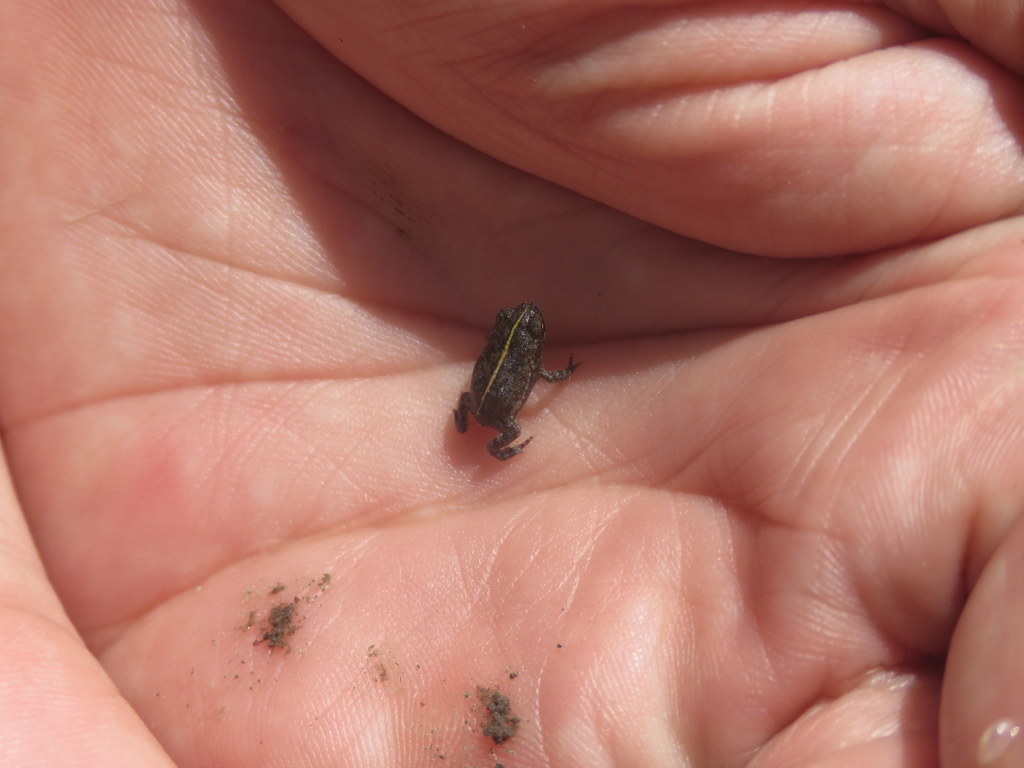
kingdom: Animalia
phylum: Chordata
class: Amphibia
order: Anura
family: Bufonidae
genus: Rhinella
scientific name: Rhinella dorbignyi
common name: D´orbigny’s toad
